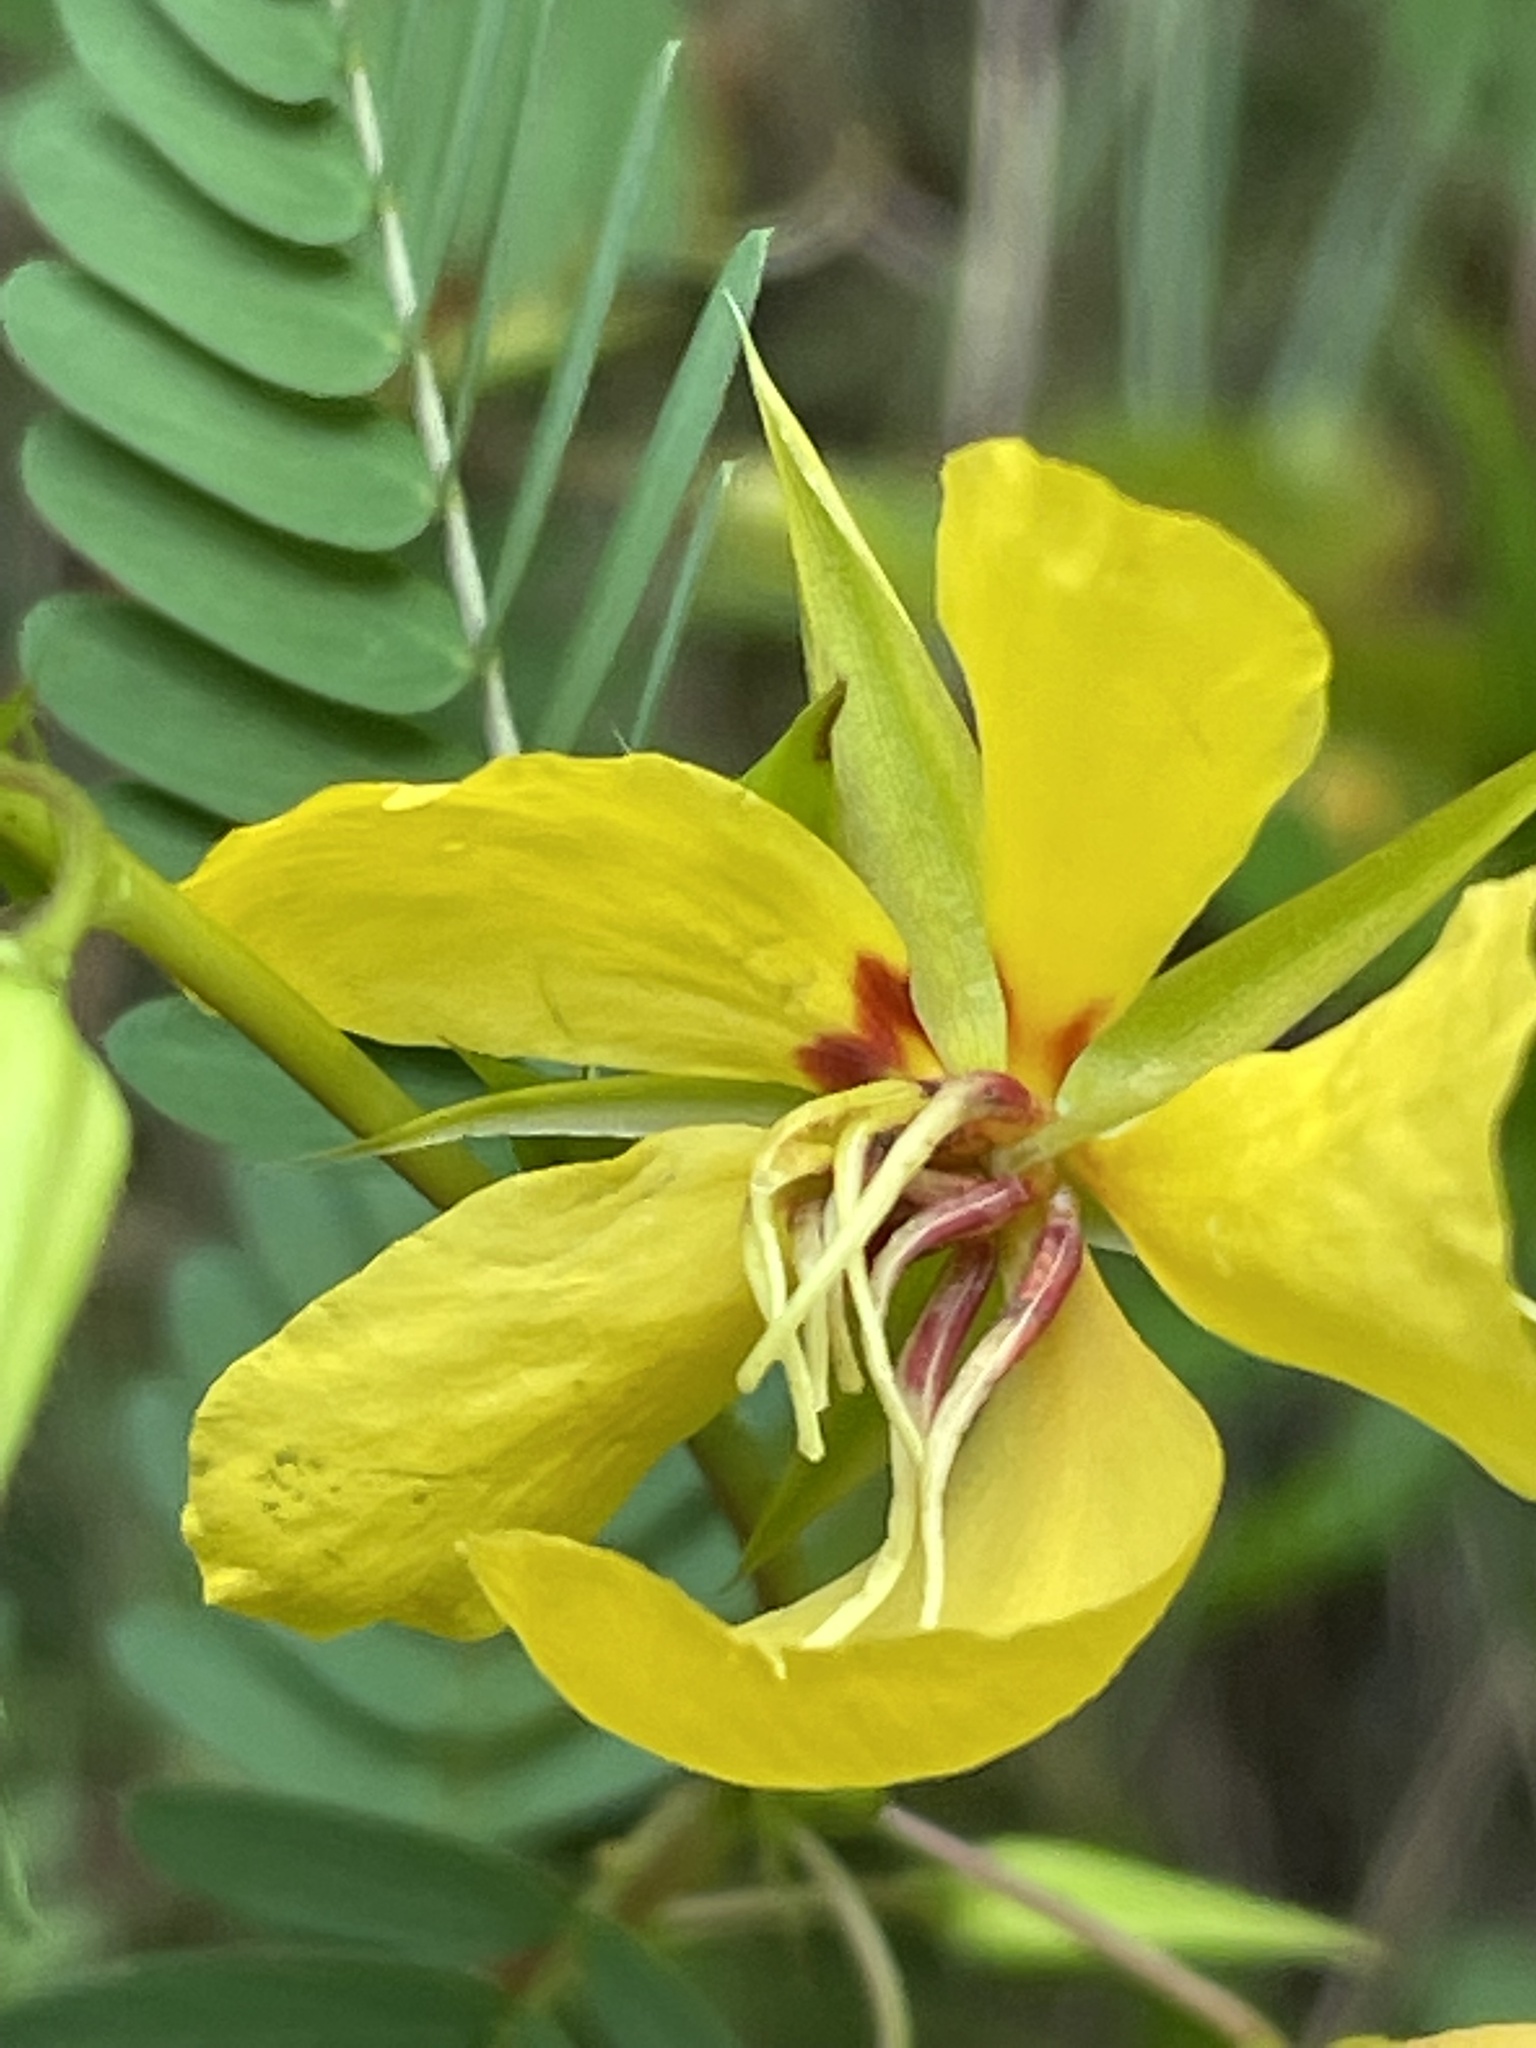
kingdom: Plantae
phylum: Tracheophyta
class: Magnoliopsida
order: Fabales
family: Fabaceae
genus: Chamaecrista
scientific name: Chamaecrista fasciculata
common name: Golden cassia
